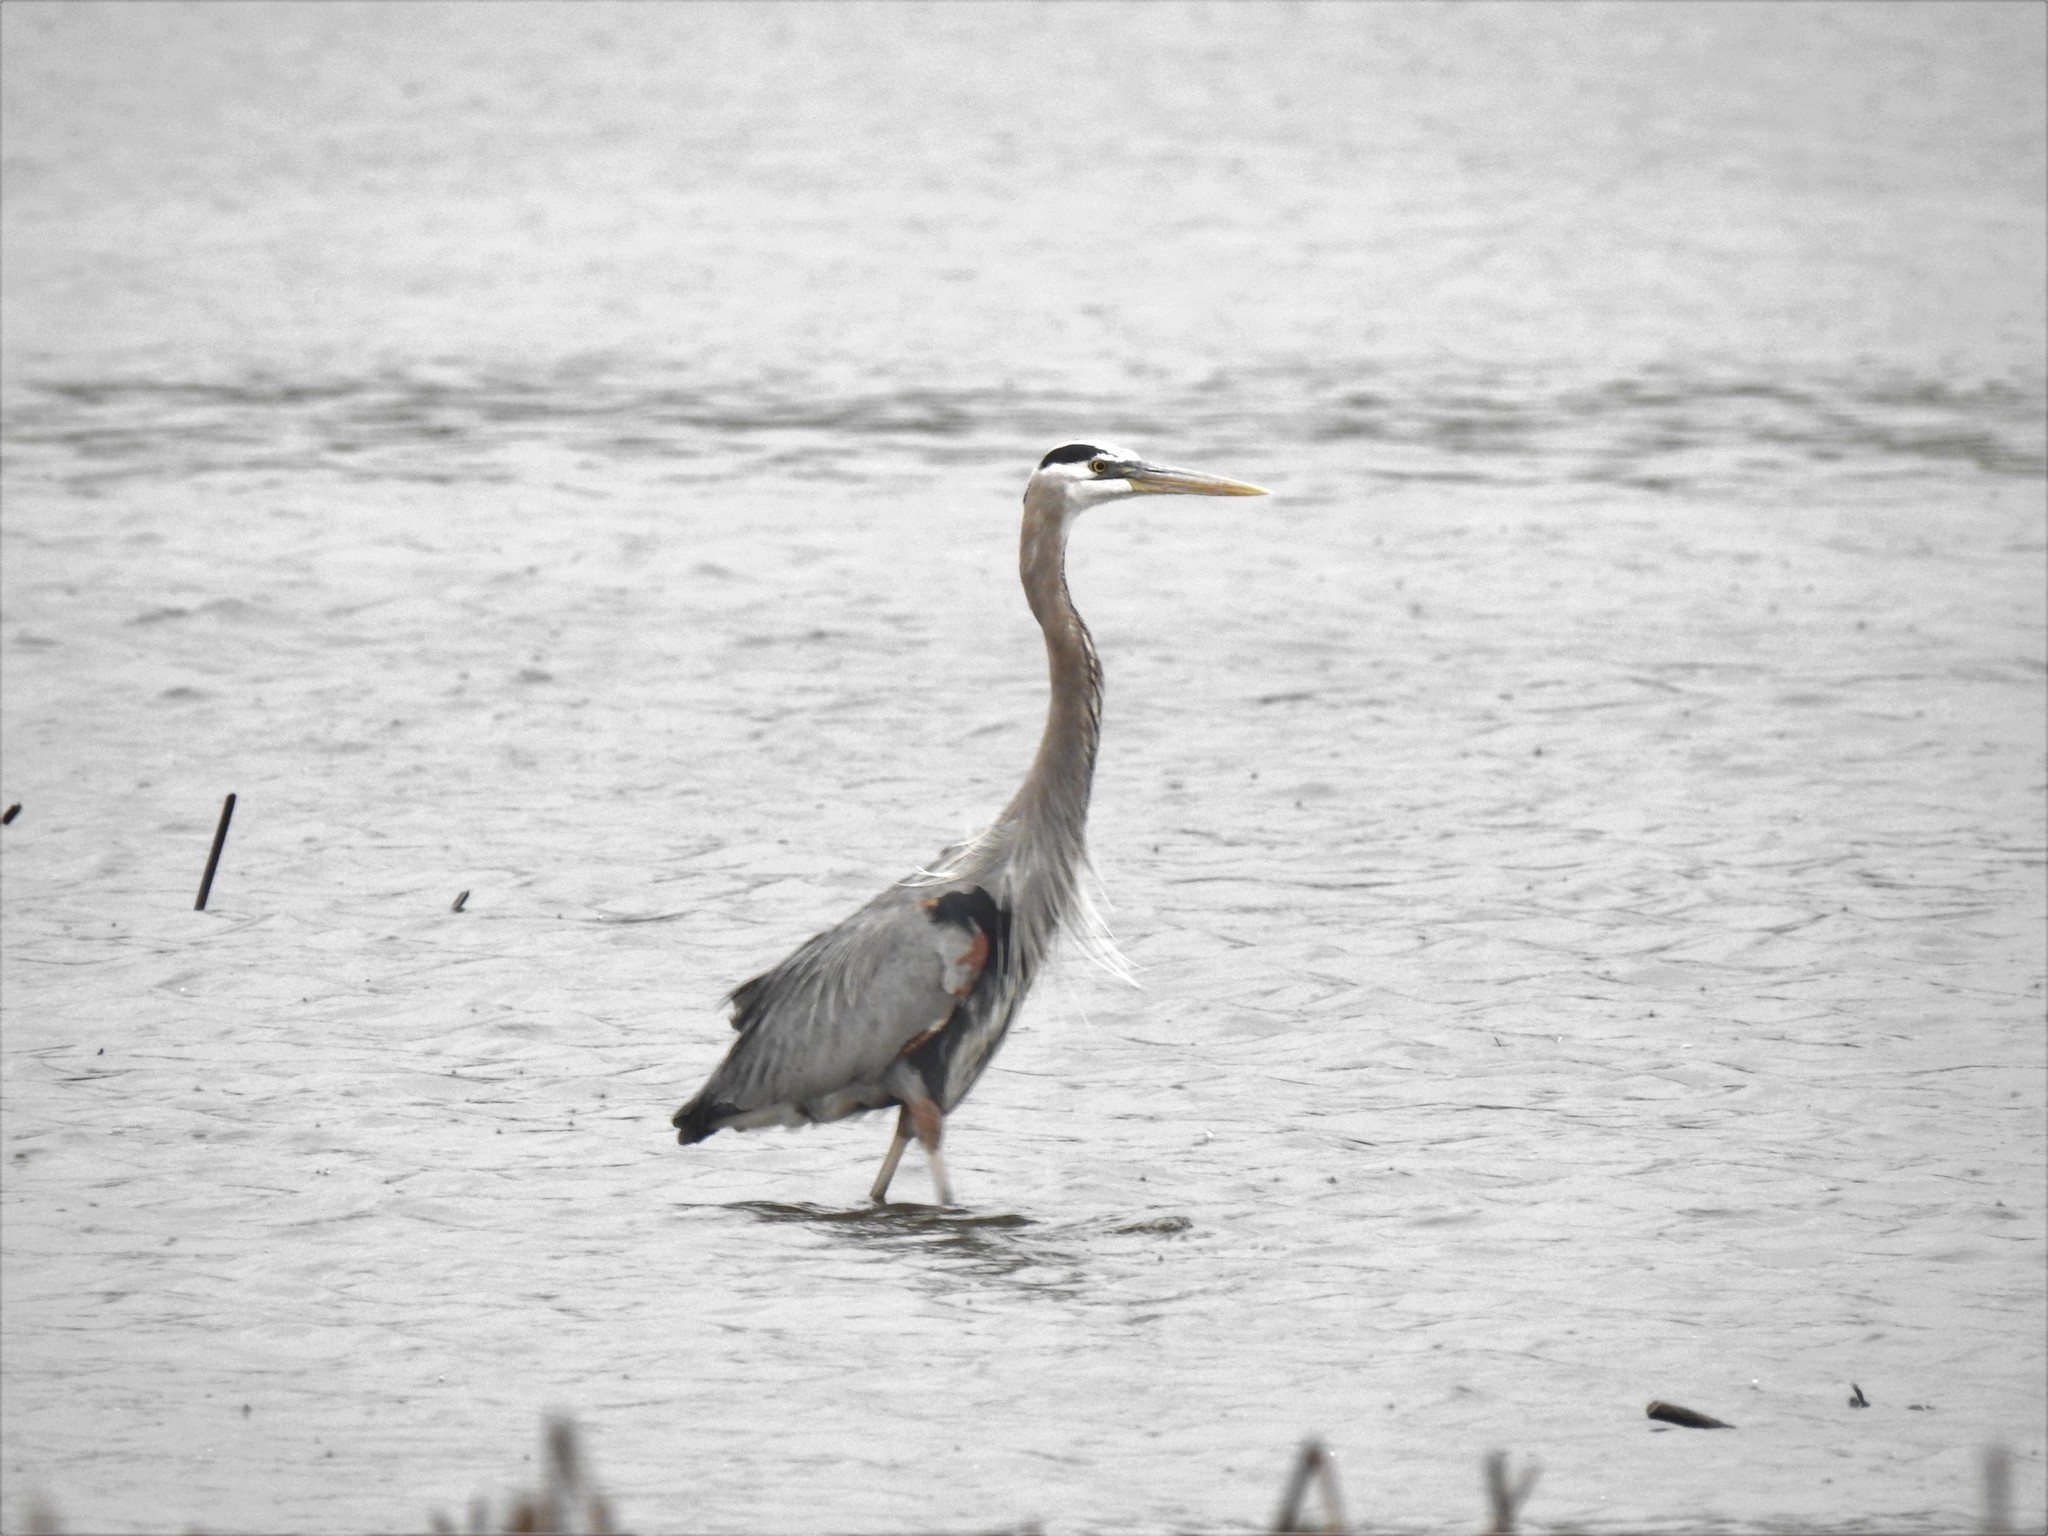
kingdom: Animalia
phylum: Chordata
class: Aves
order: Pelecaniformes
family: Ardeidae
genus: Ardea
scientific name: Ardea herodias
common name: Great blue heron
